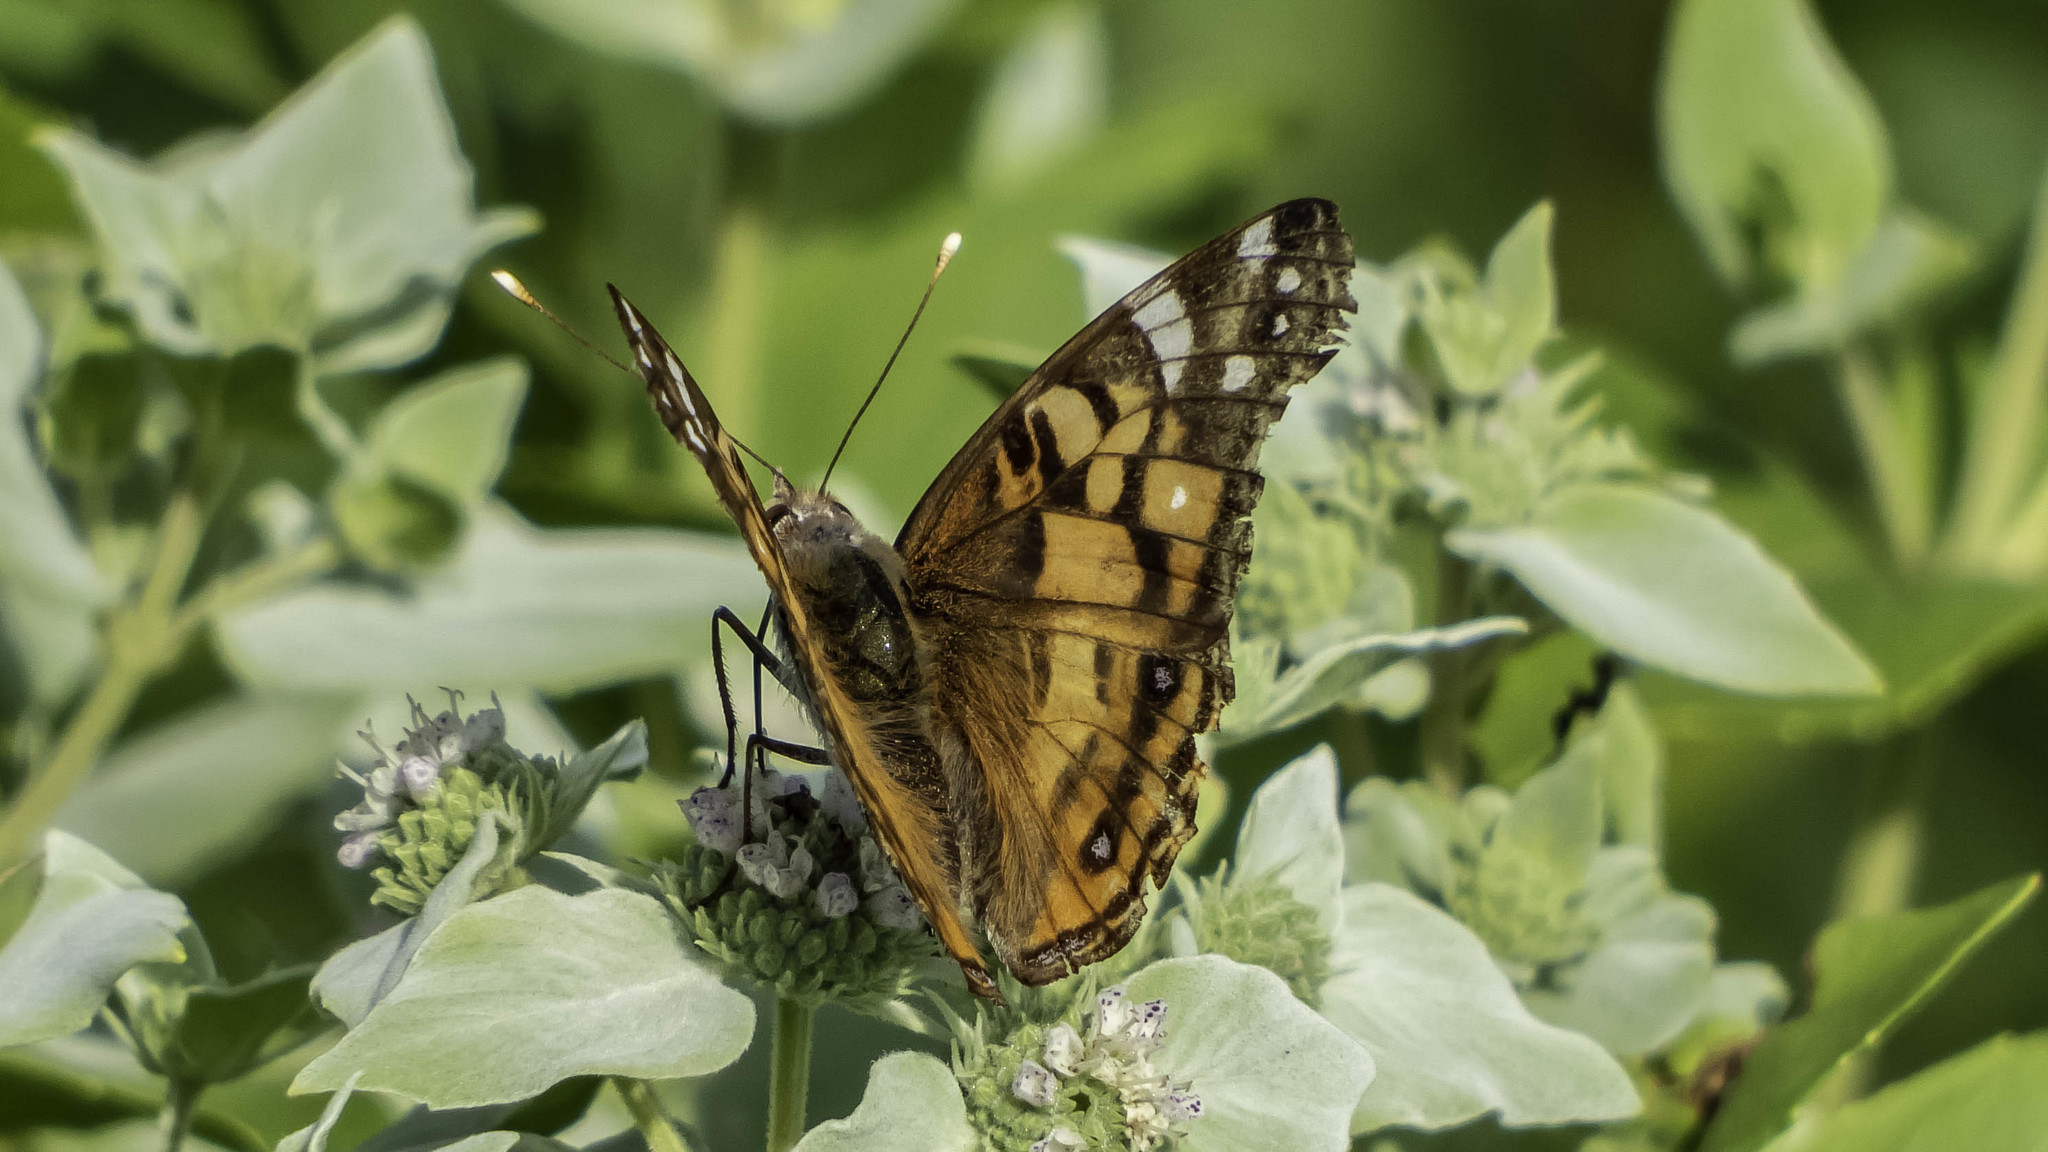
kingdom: Animalia
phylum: Arthropoda
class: Insecta
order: Lepidoptera
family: Nymphalidae
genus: Vanessa
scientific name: Vanessa virginiensis
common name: American lady
